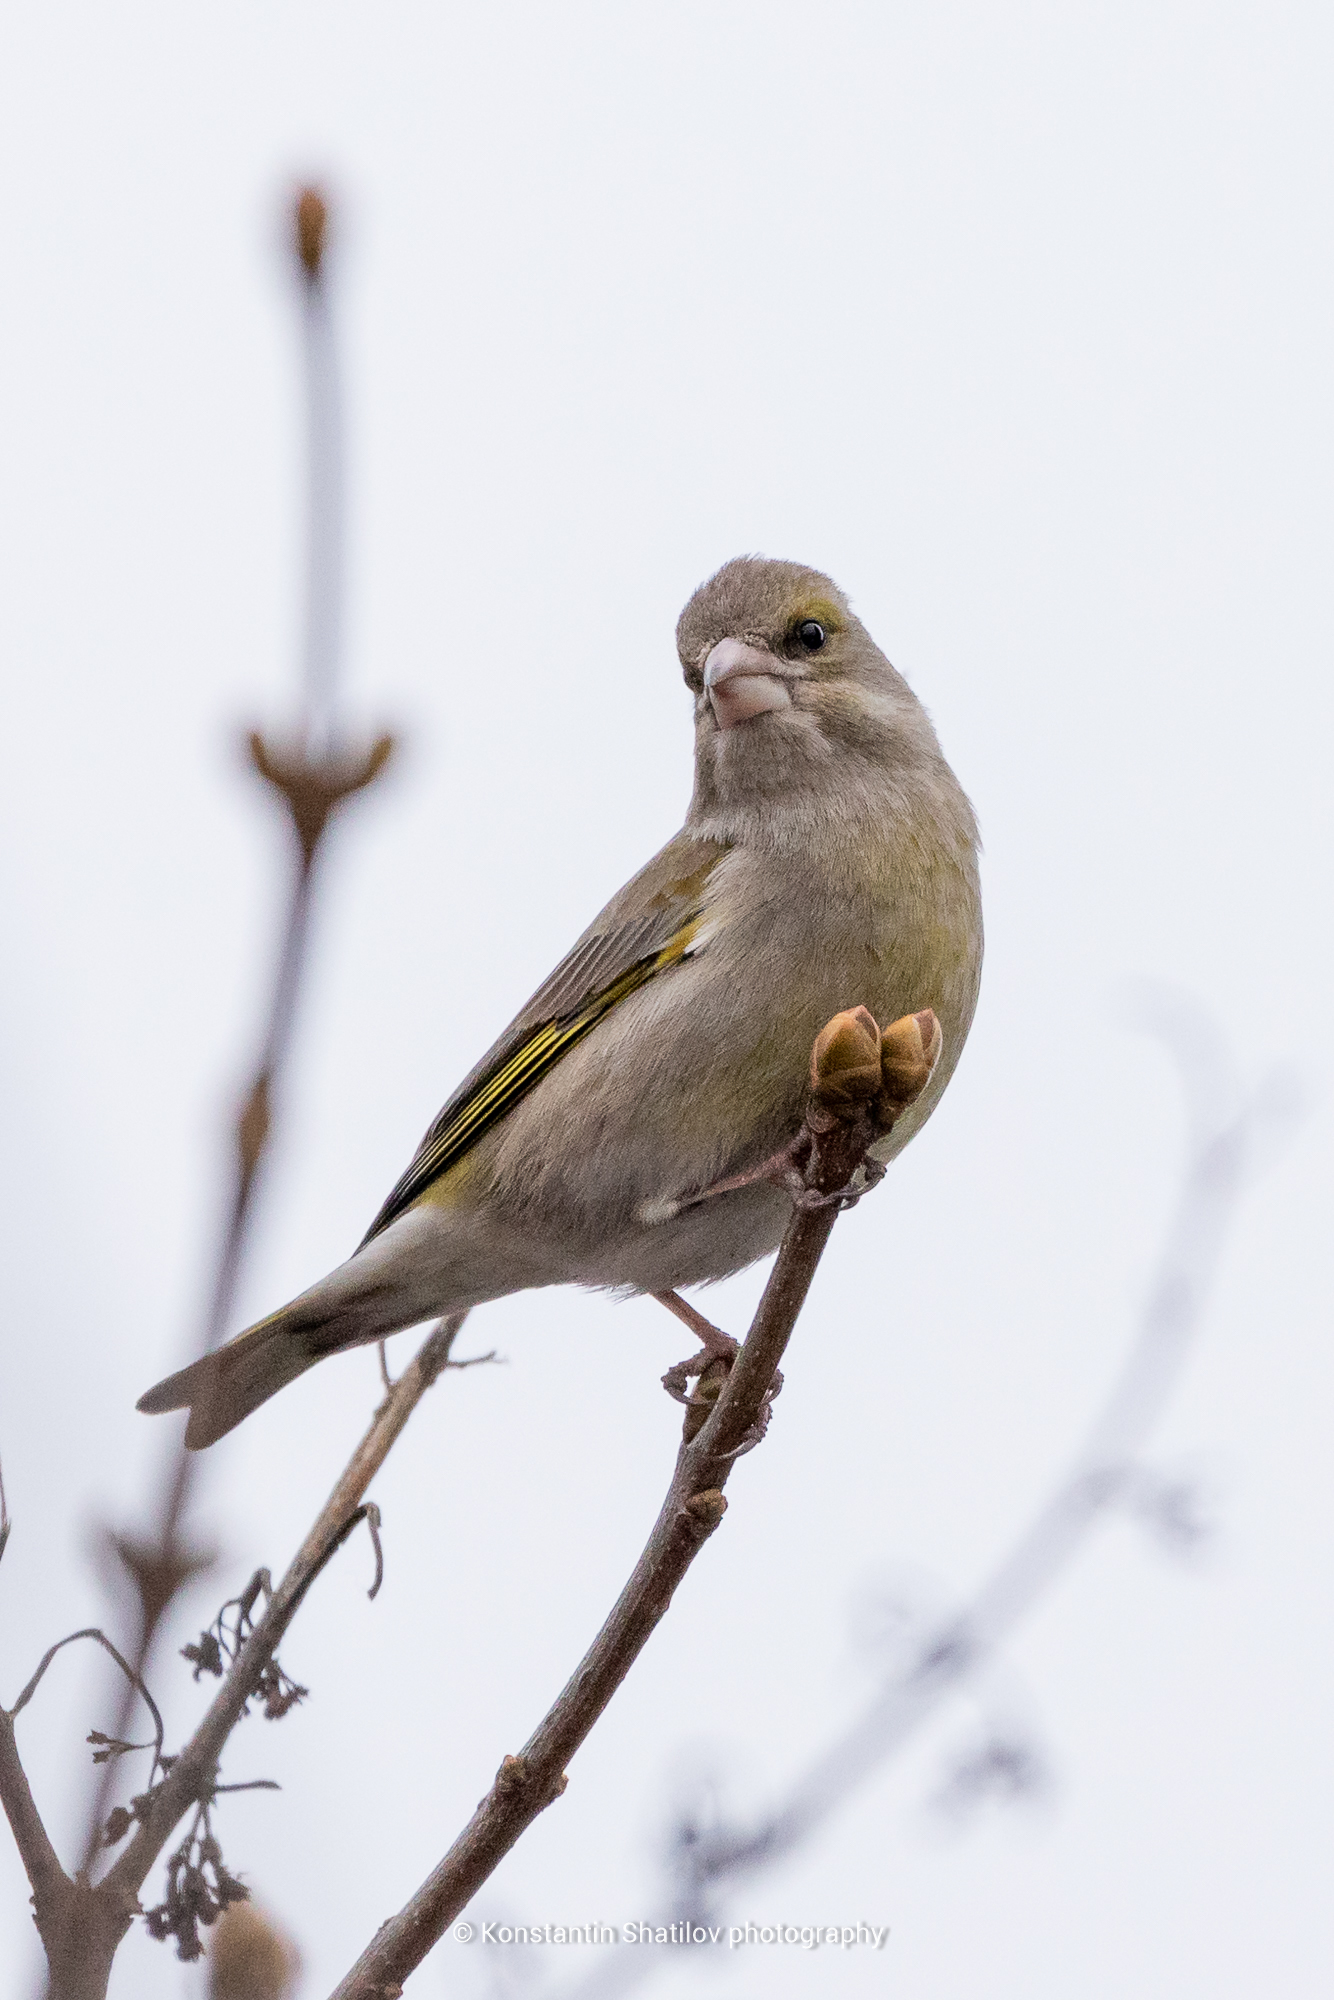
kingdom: Plantae
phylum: Tracheophyta
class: Liliopsida
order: Poales
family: Poaceae
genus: Chloris
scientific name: Chloris chloris
